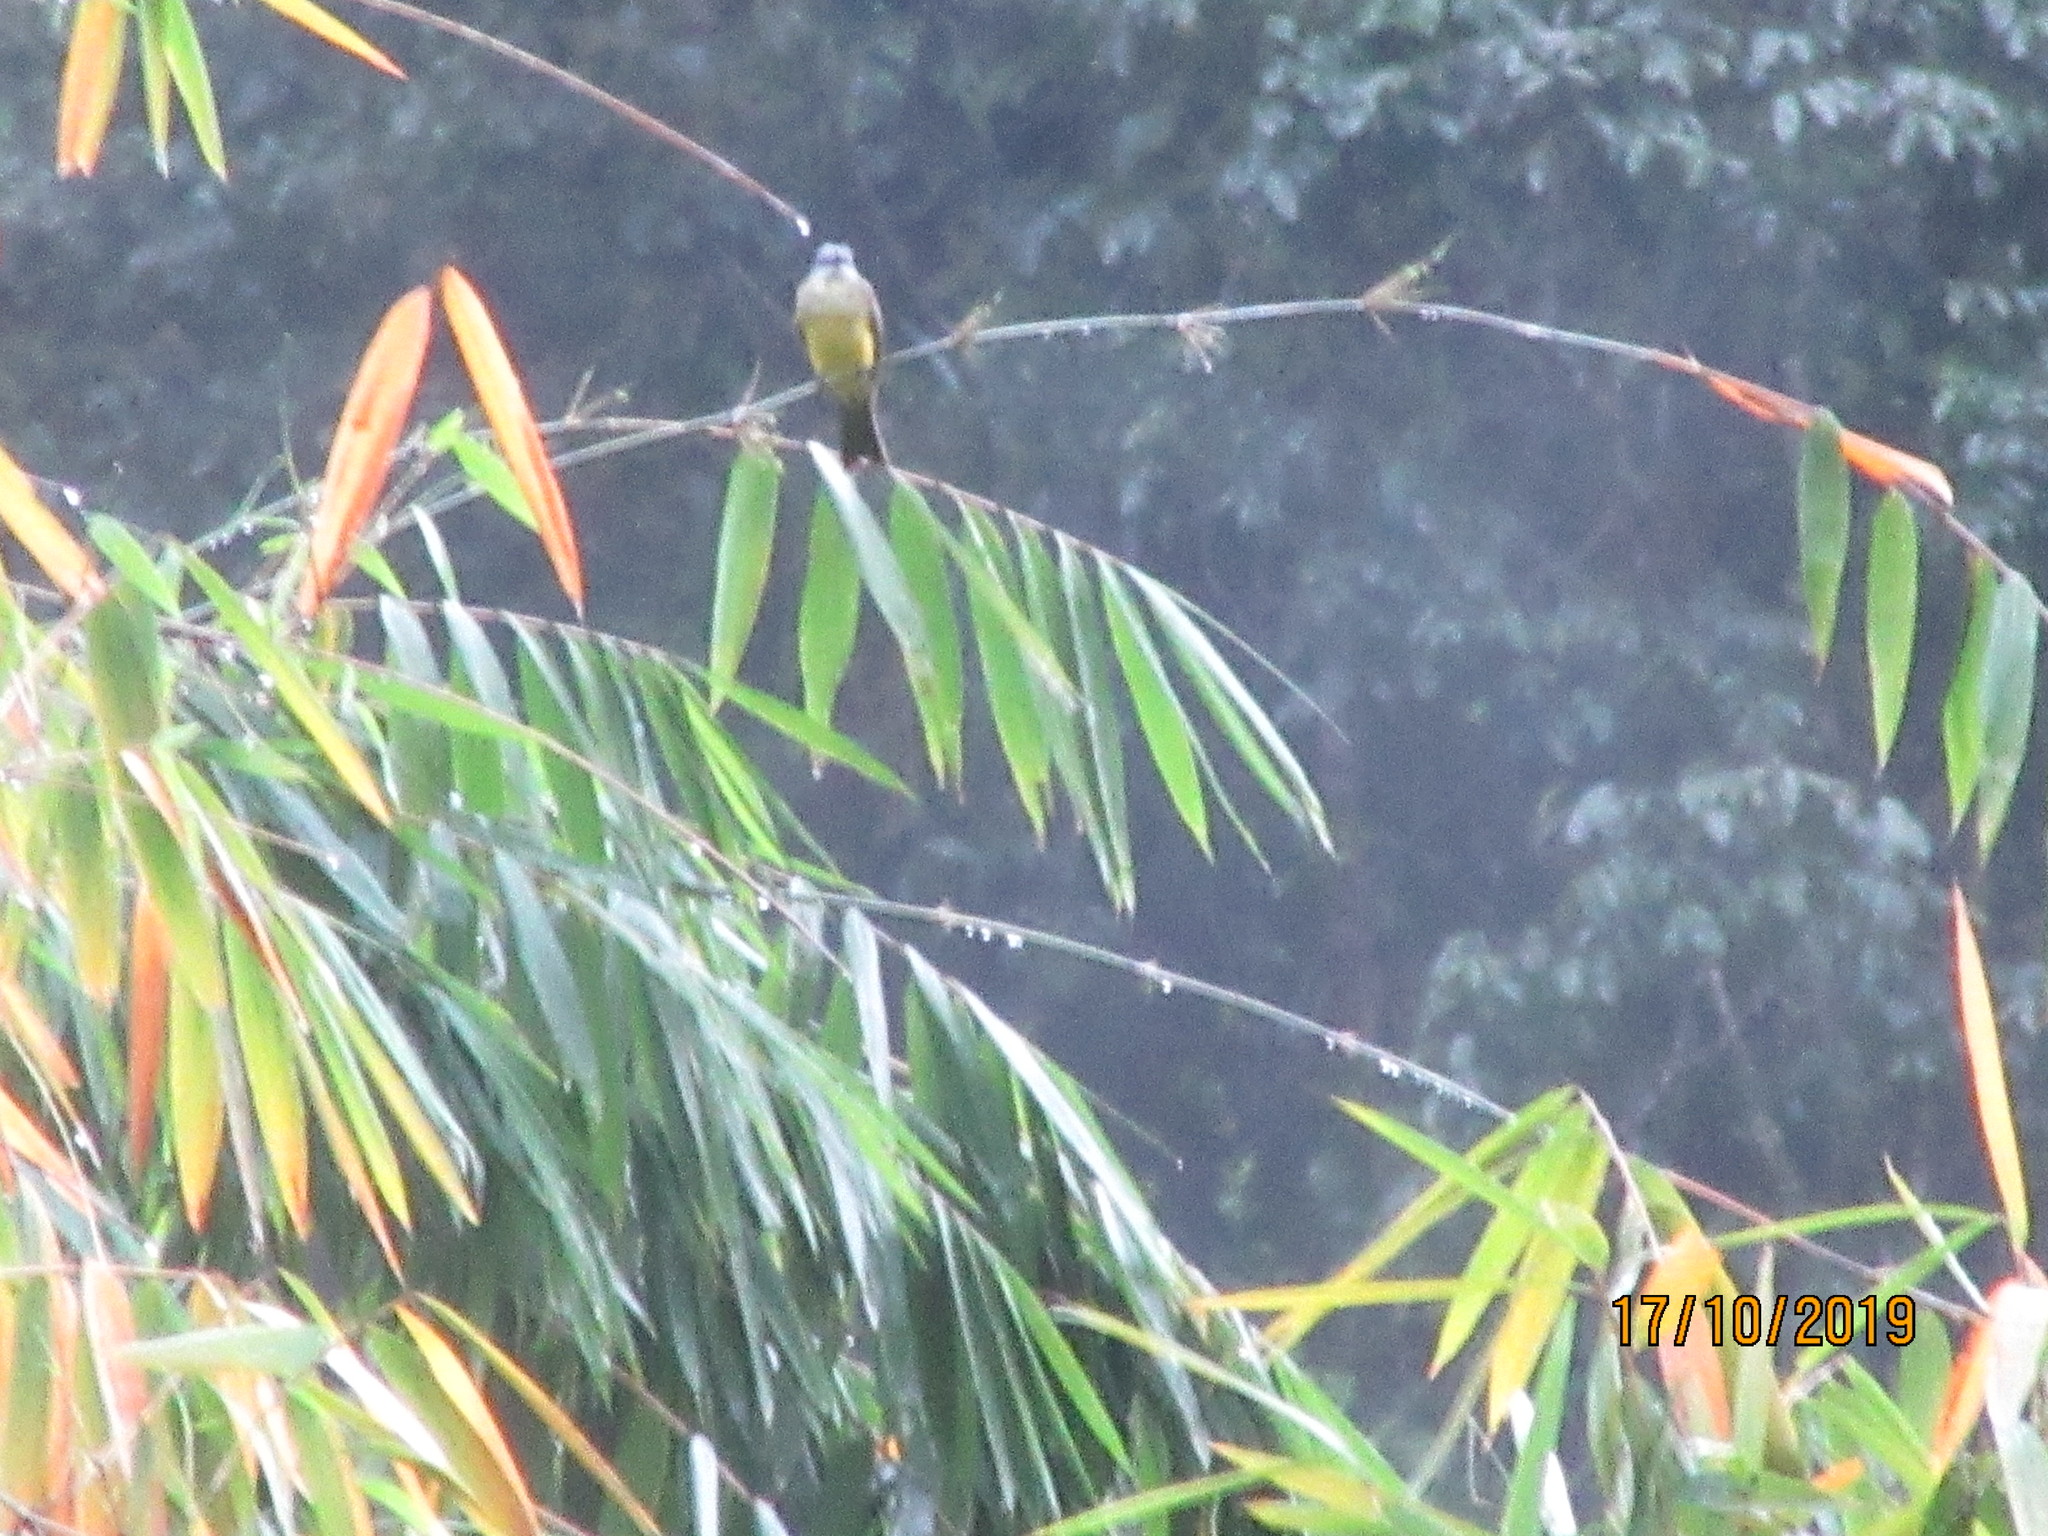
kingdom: Animalia
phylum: Chordata
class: Aves
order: Passeriformes
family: Tyrannidae
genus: Tyrannus
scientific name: Tyrannus melancholicus
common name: Tropical kingbird
